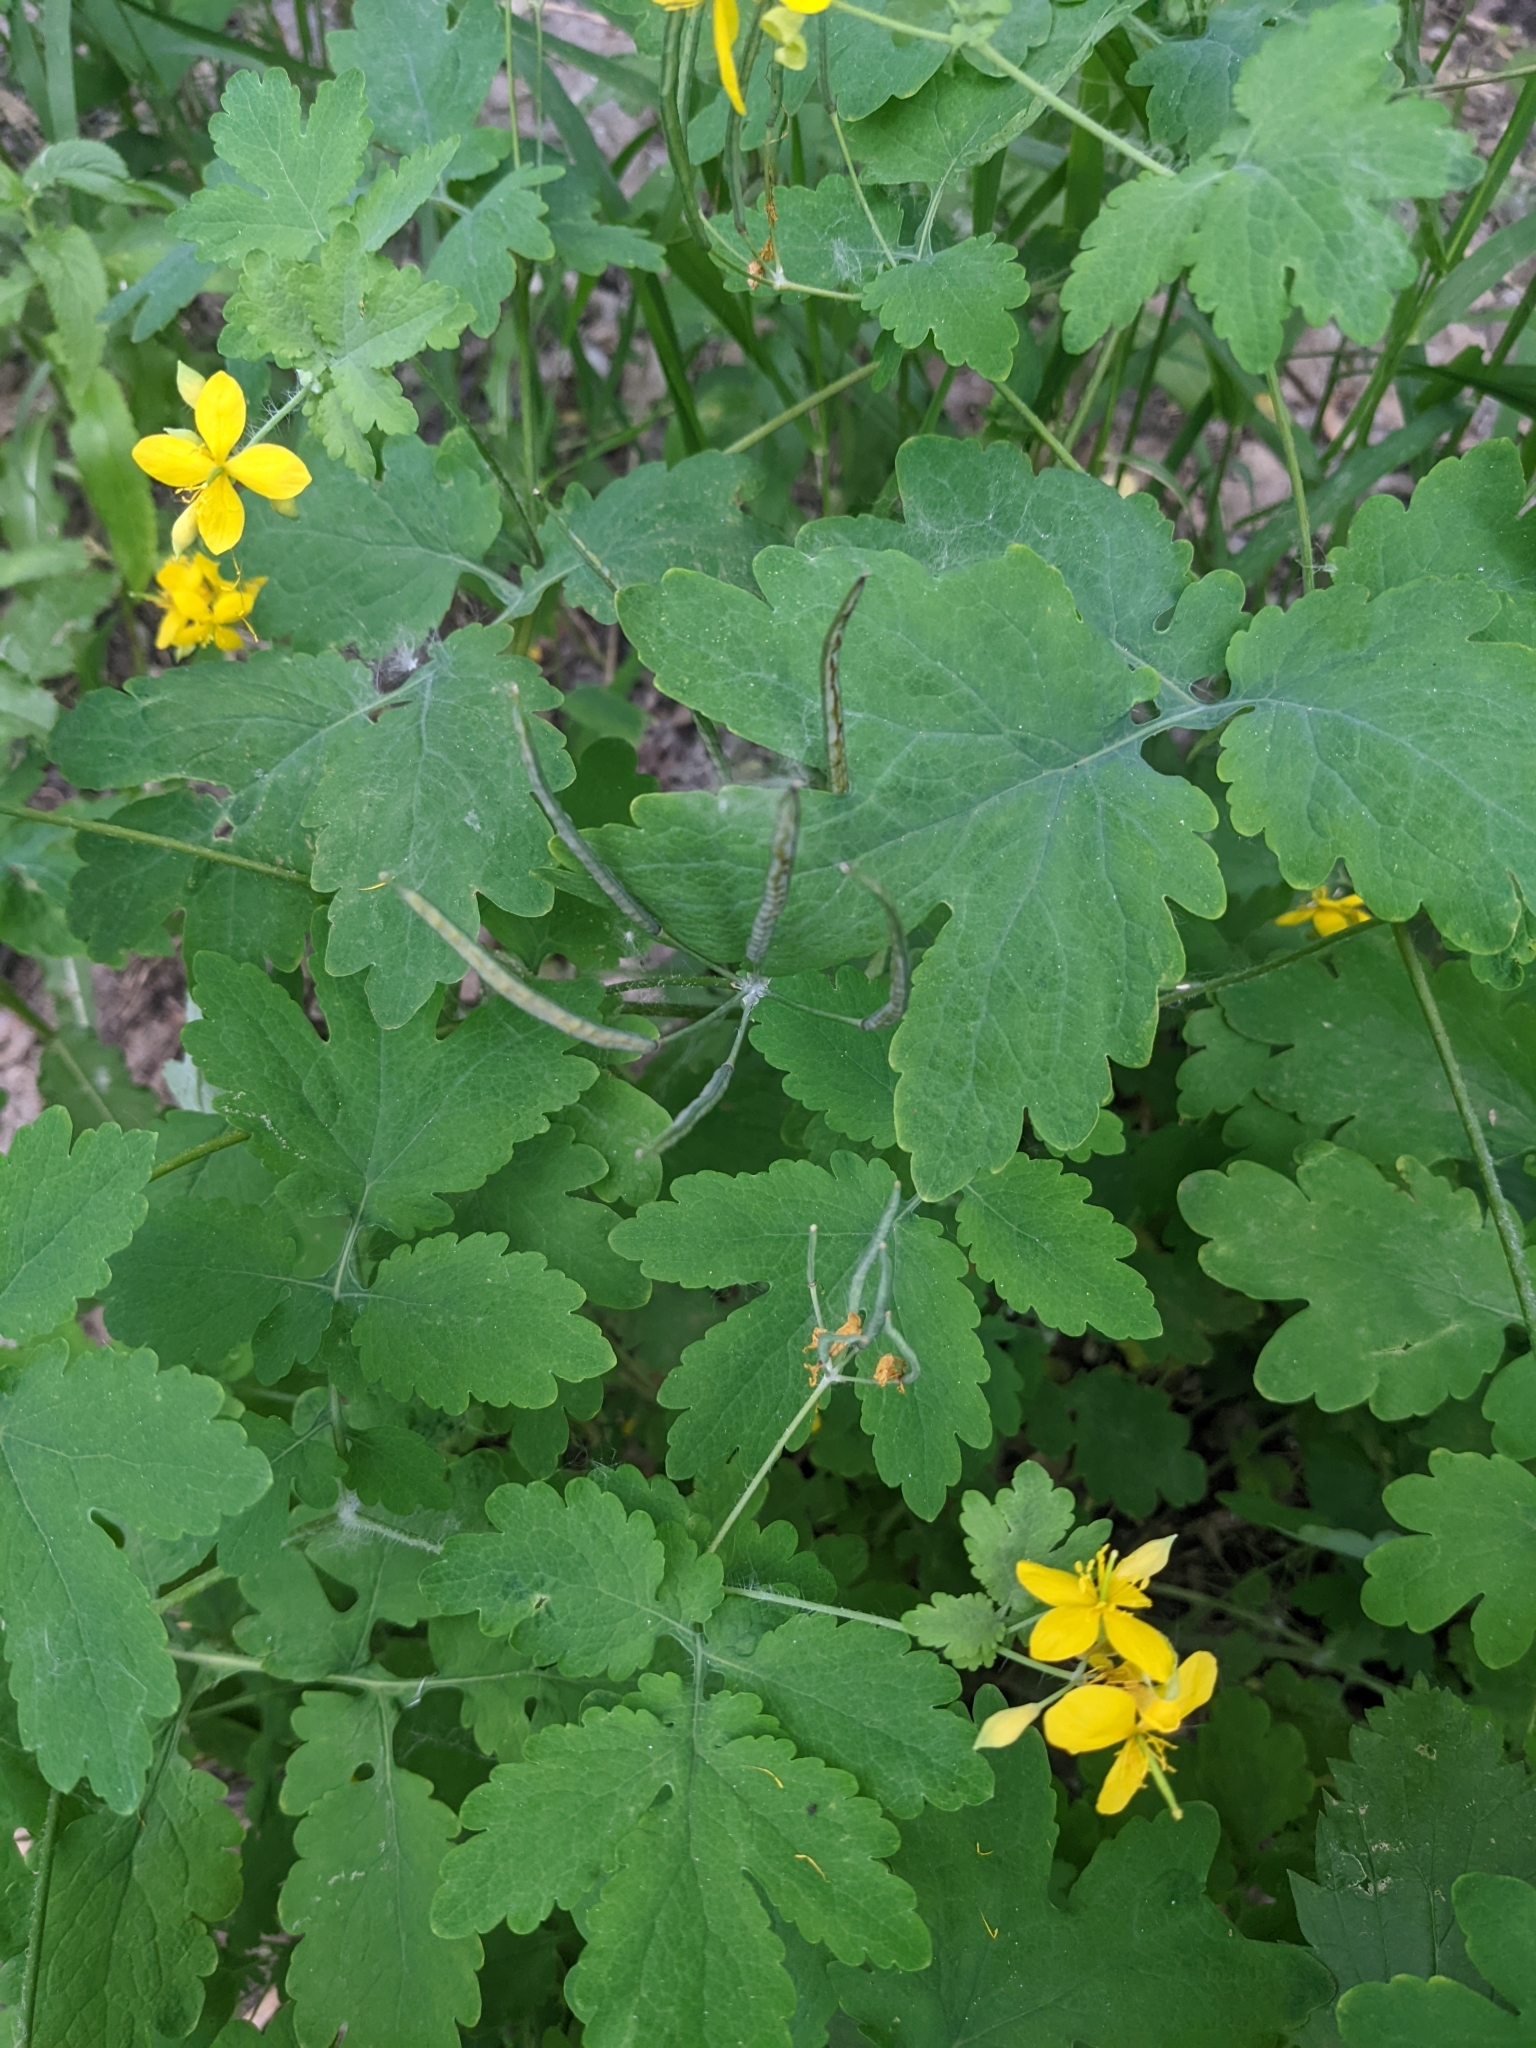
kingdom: Plantae
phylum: Tracheophyta
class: Magnoliopsida
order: Ranunculales
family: Papaveraceae
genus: Chelidonium
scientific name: Chelidonium majus
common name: Greater celandine
